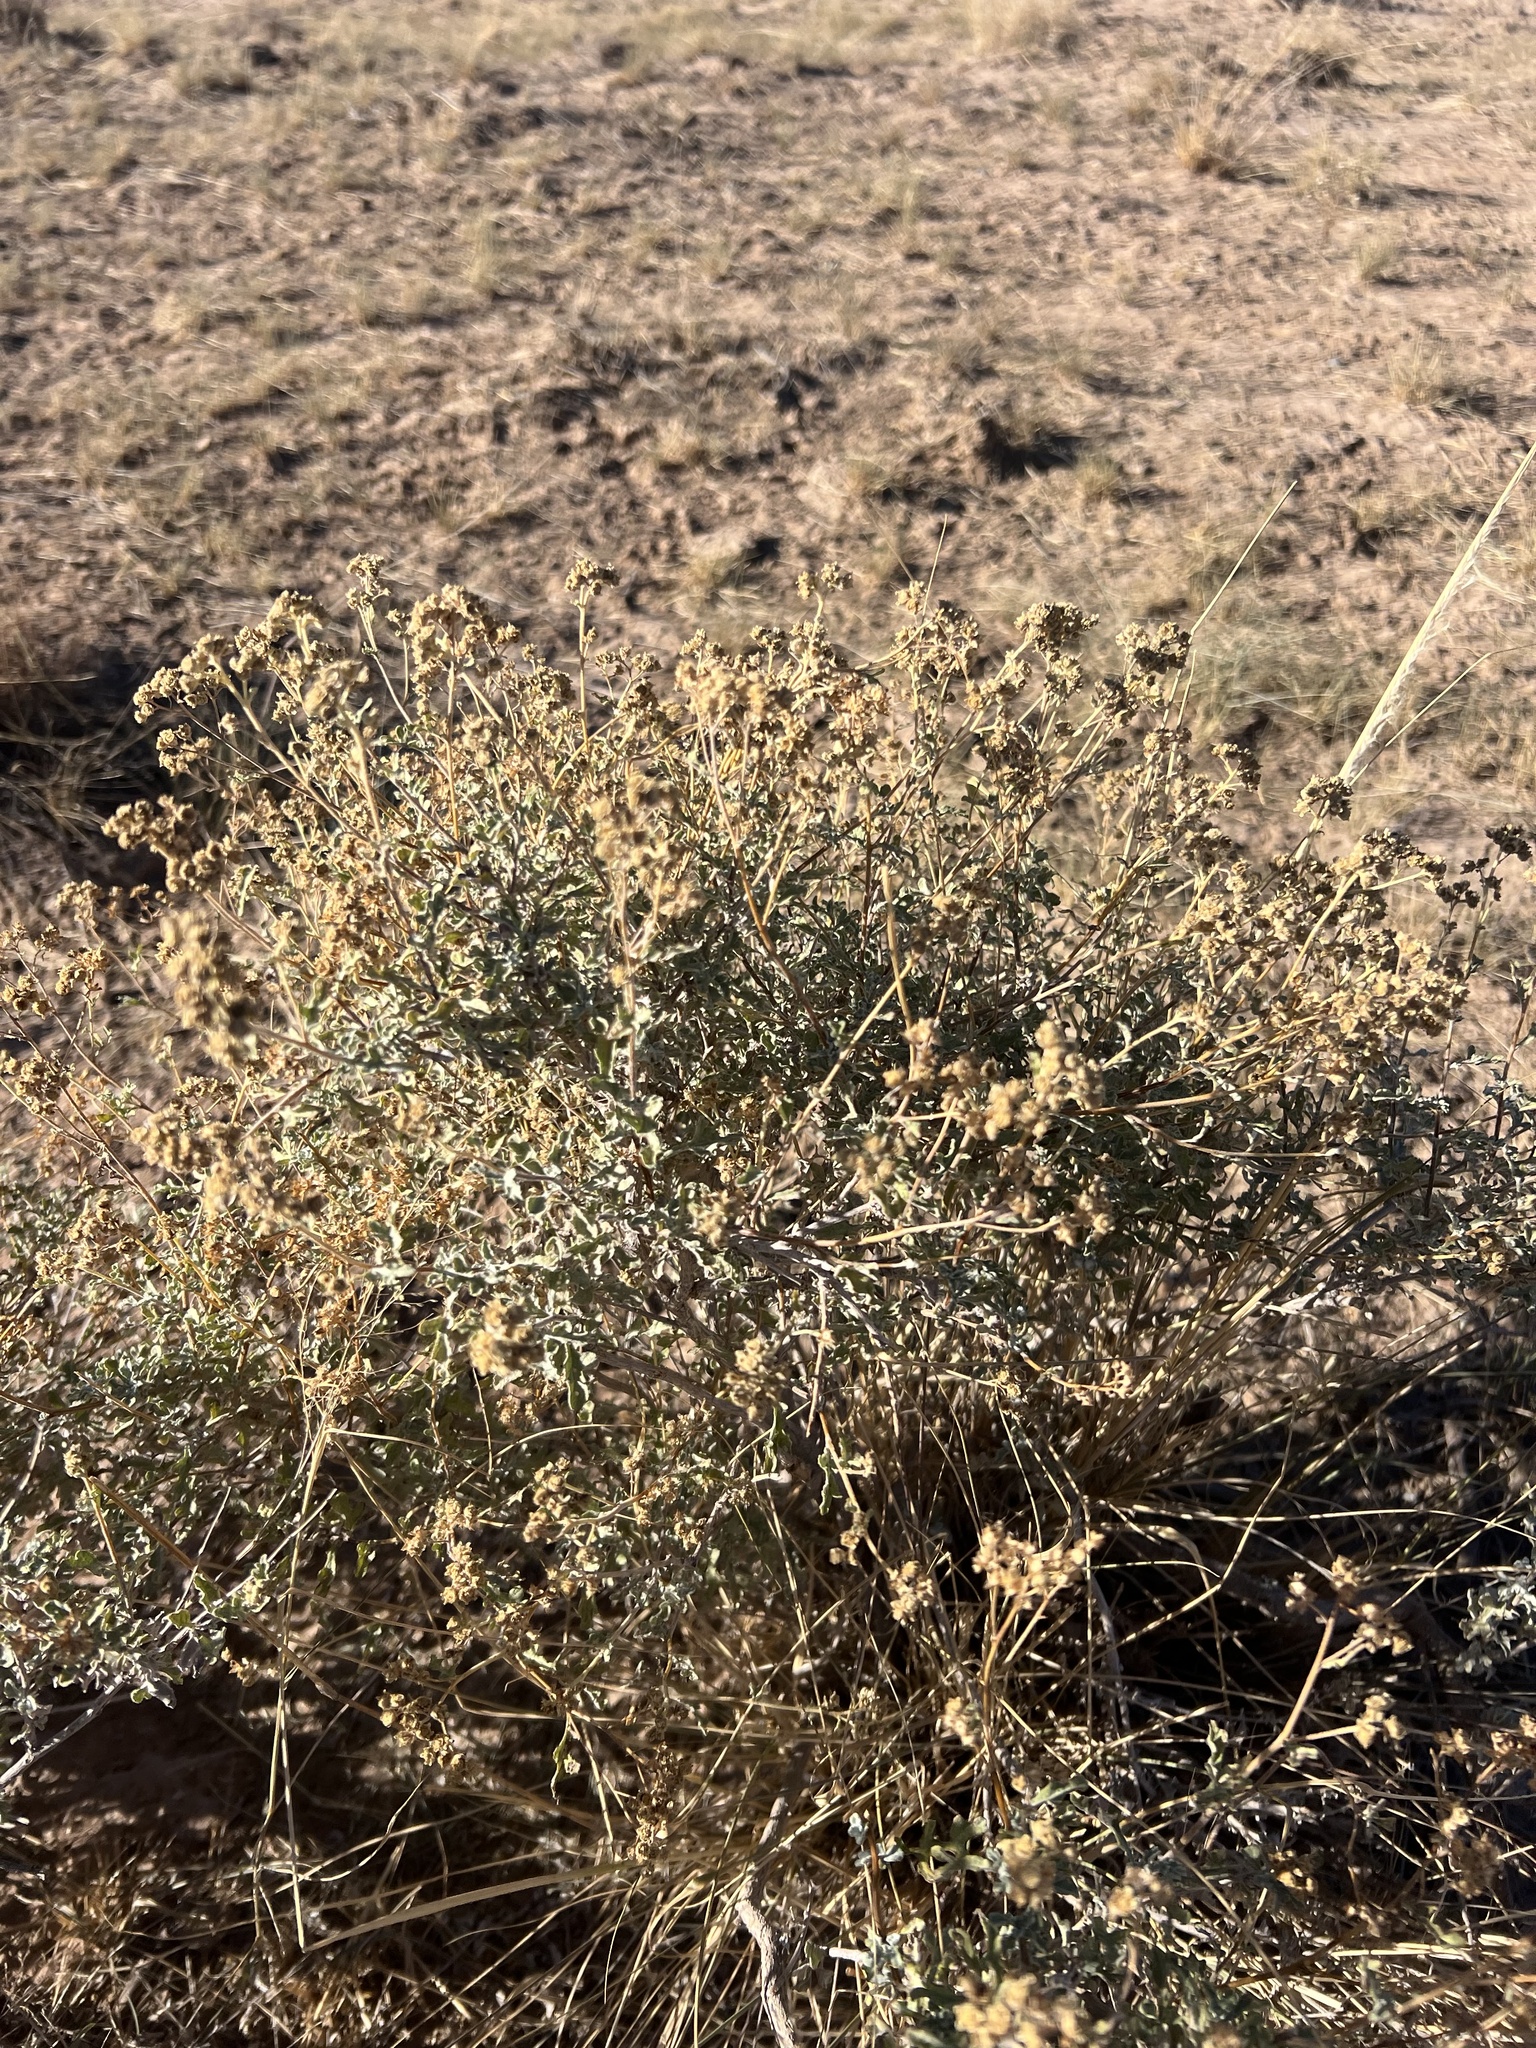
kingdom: Plantae
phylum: Tracheophyta
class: Magnoliopsida
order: Asterales
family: Asteraceae
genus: Parthenium
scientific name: Parthenium incanum
